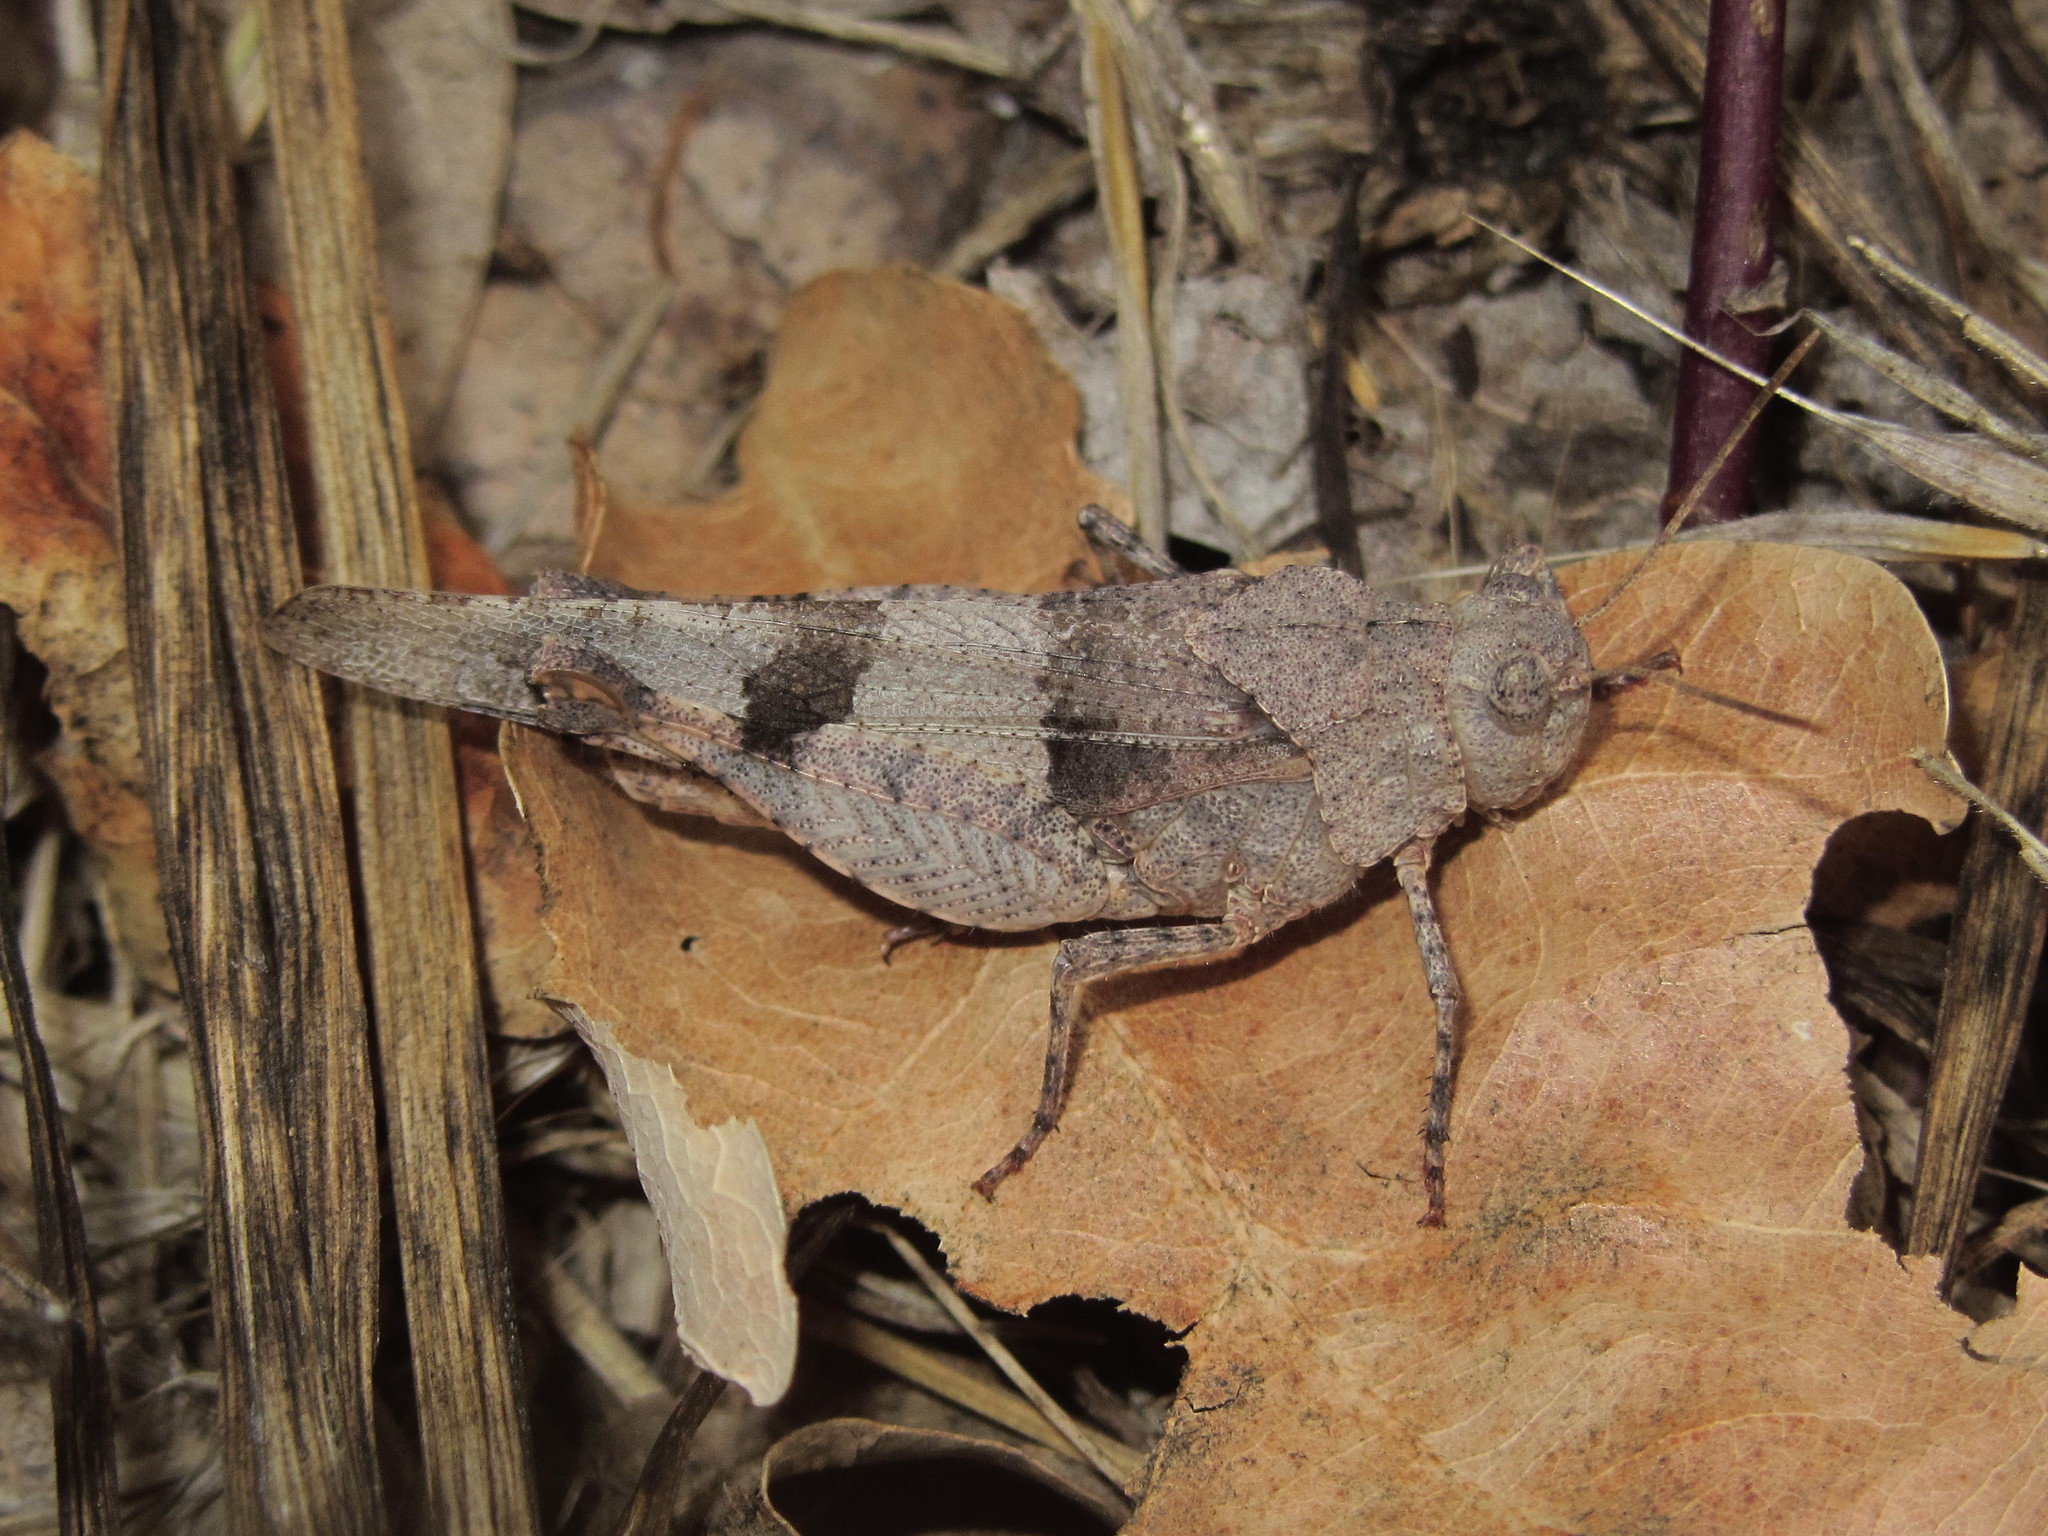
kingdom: Animalia
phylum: Arthropoda
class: Insecta
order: Orthoptera
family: Acrididae
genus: Oedipoda
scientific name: Oedipoda caerulescens
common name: Blue-winged grasshopper
